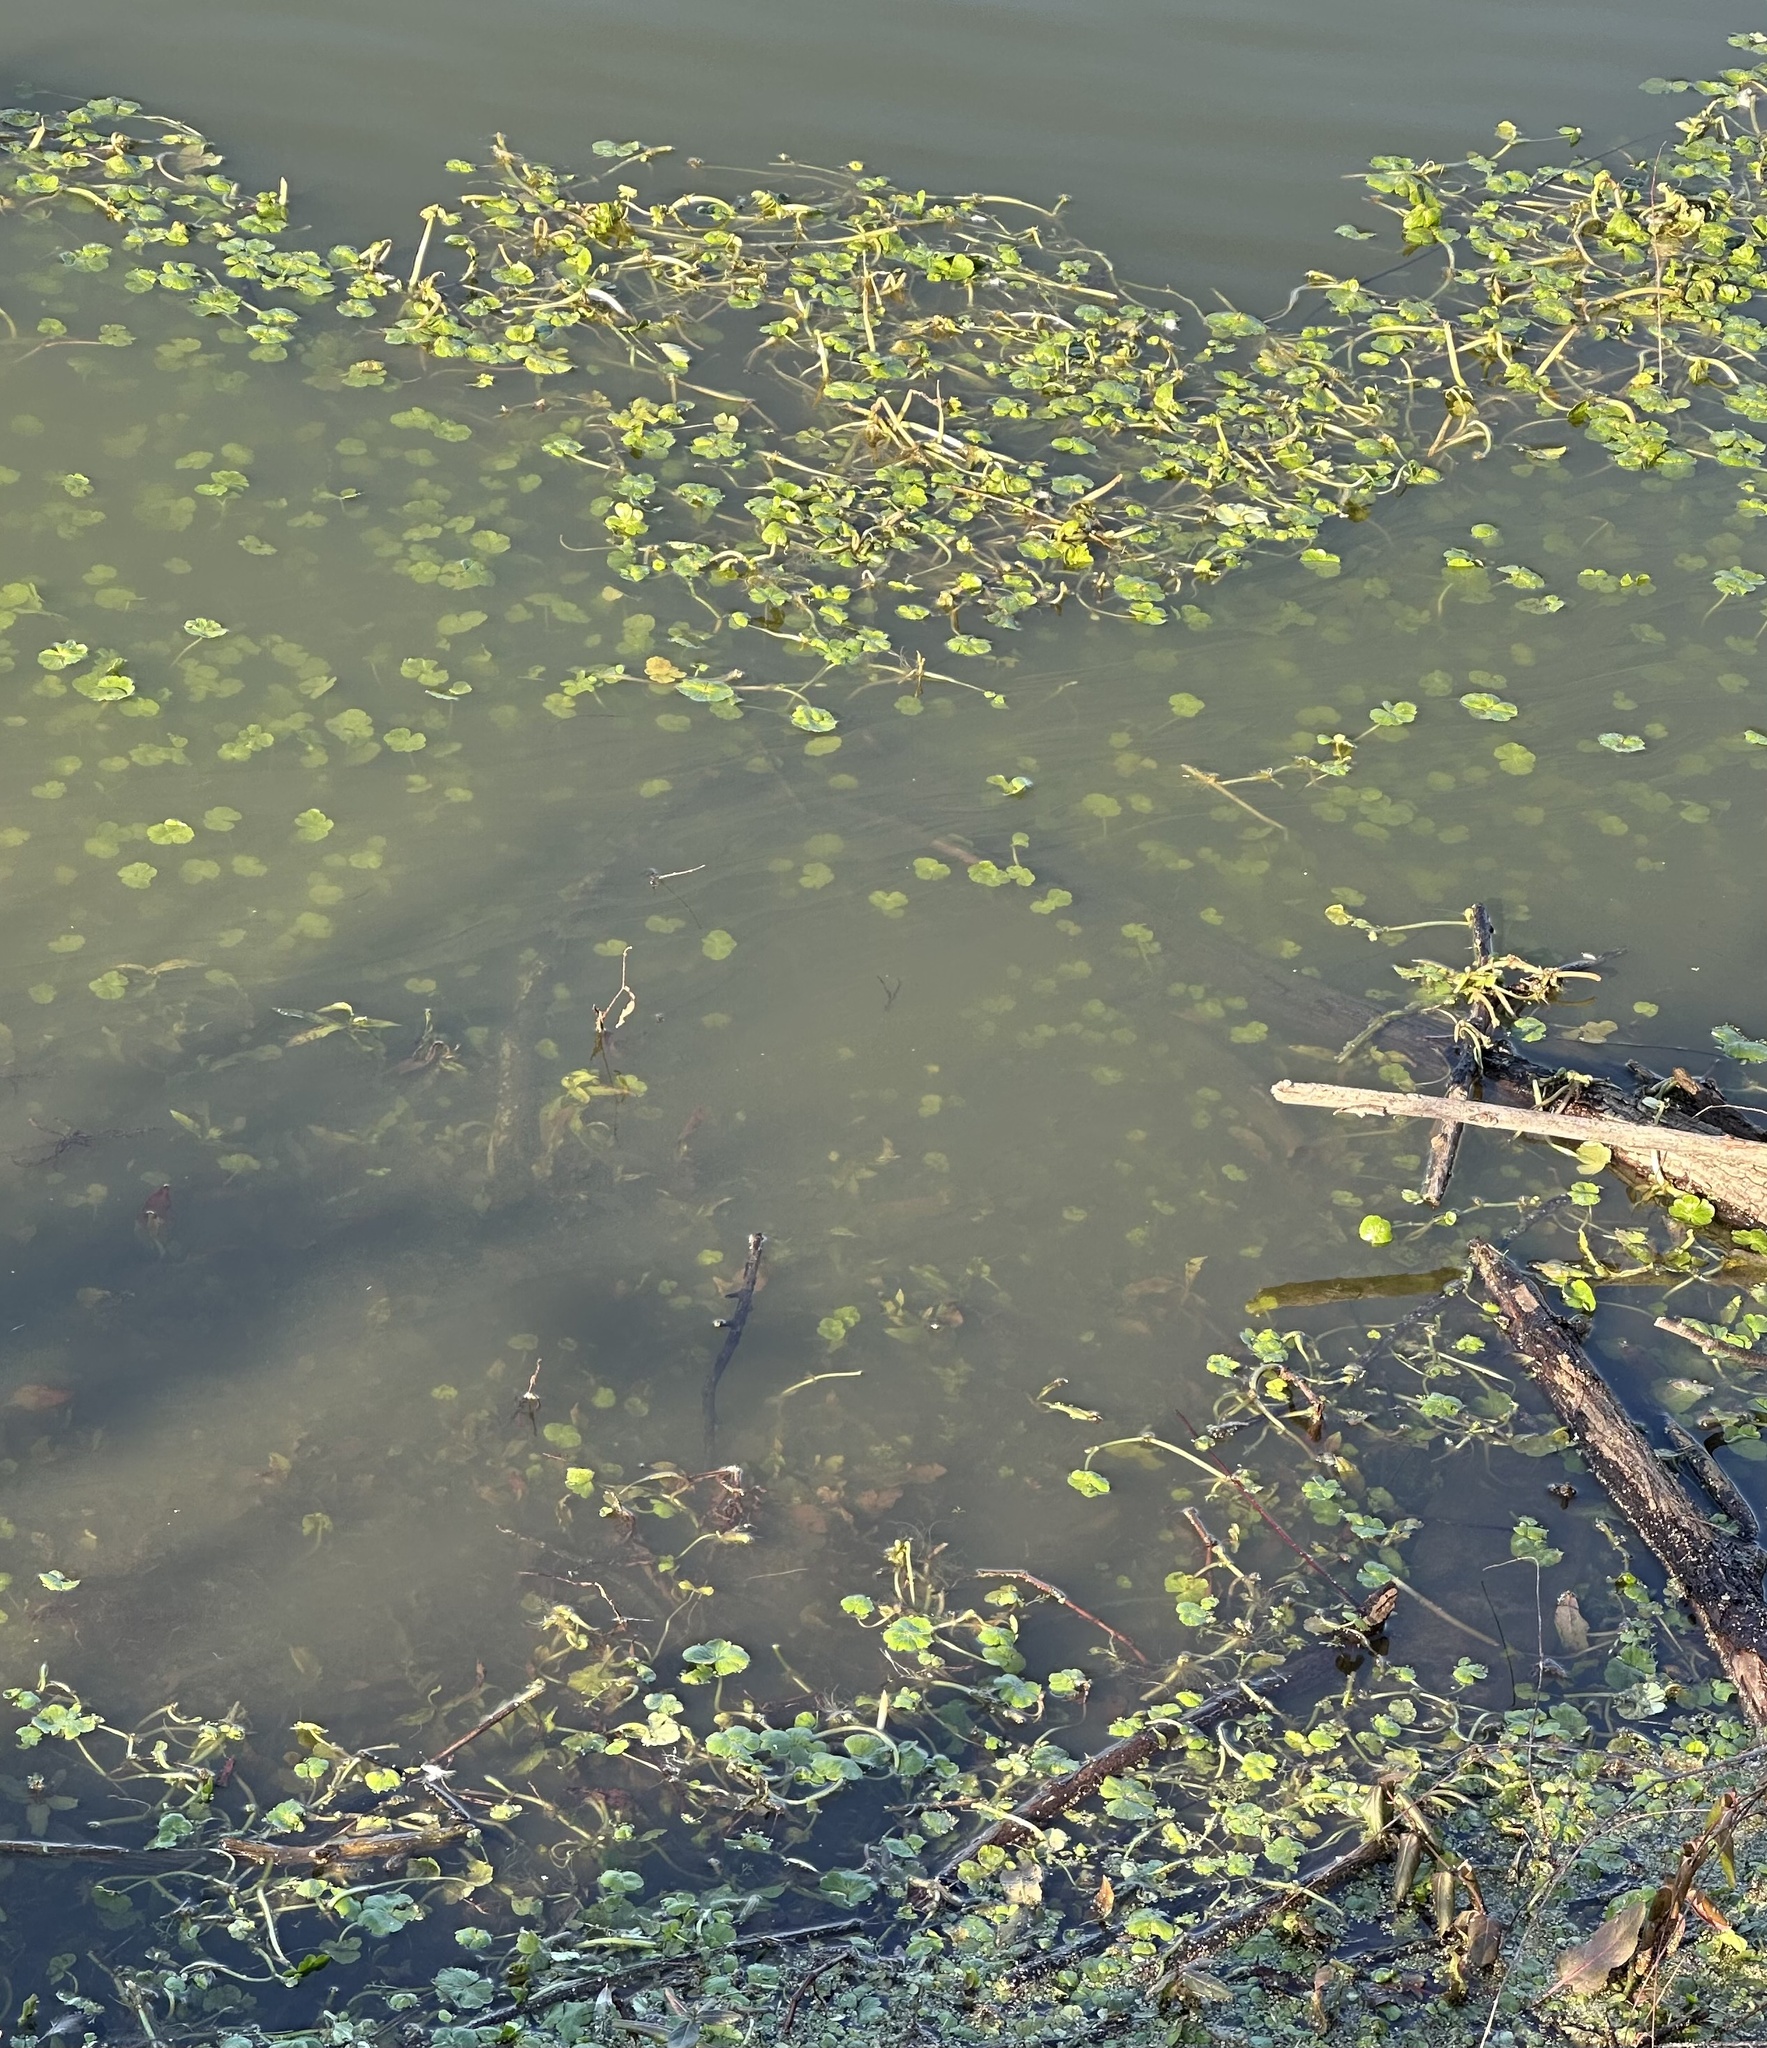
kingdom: Plantae
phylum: Tracheophyta
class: Magnoliopsida
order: Apiales
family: Araliaceae
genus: Hydrocotyle
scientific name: Hydrocotyle ranunculoides
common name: Floating pennywort
